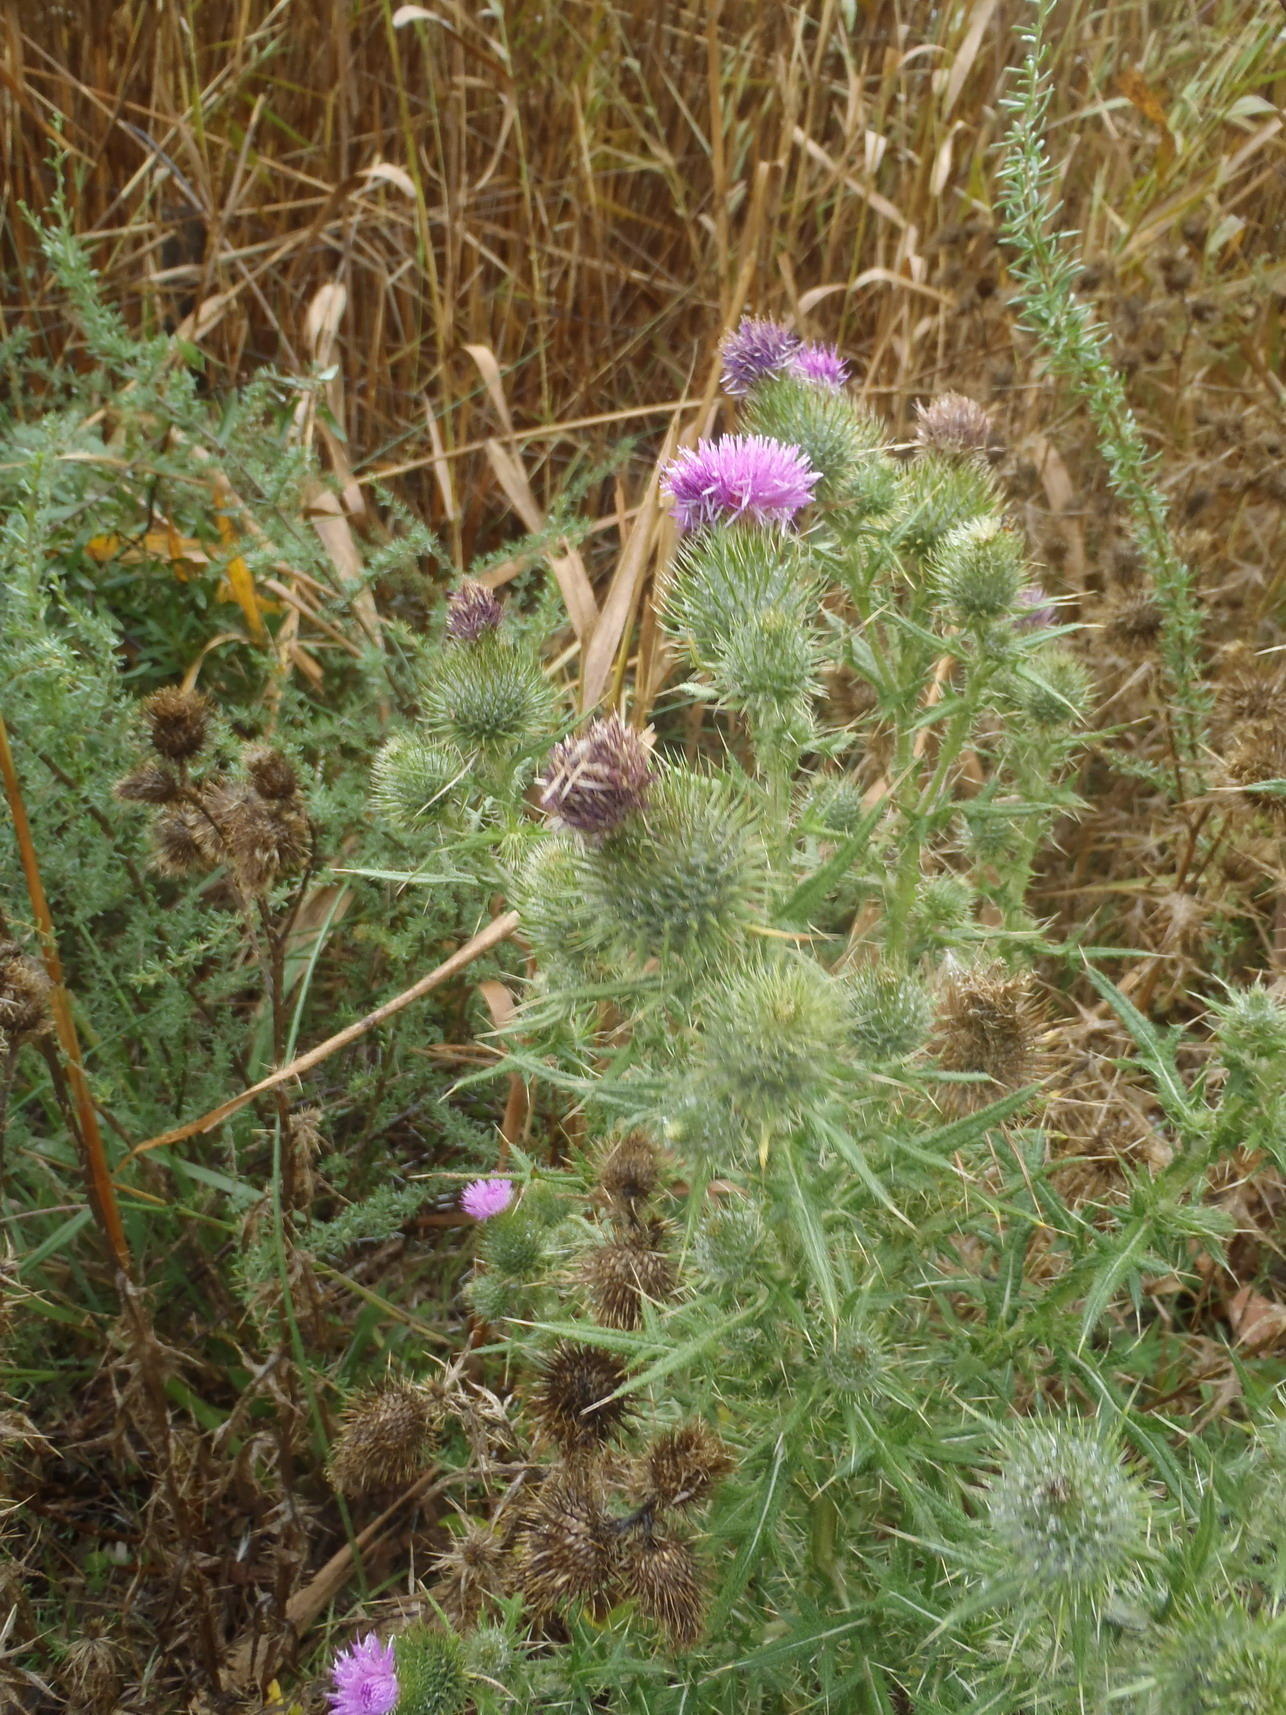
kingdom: Plantae
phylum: Tracheophyta
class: Magnoliopsida
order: Asterales
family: Asteraceae
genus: Cirsium
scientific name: Cirsium vulgare
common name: Bull thistle
